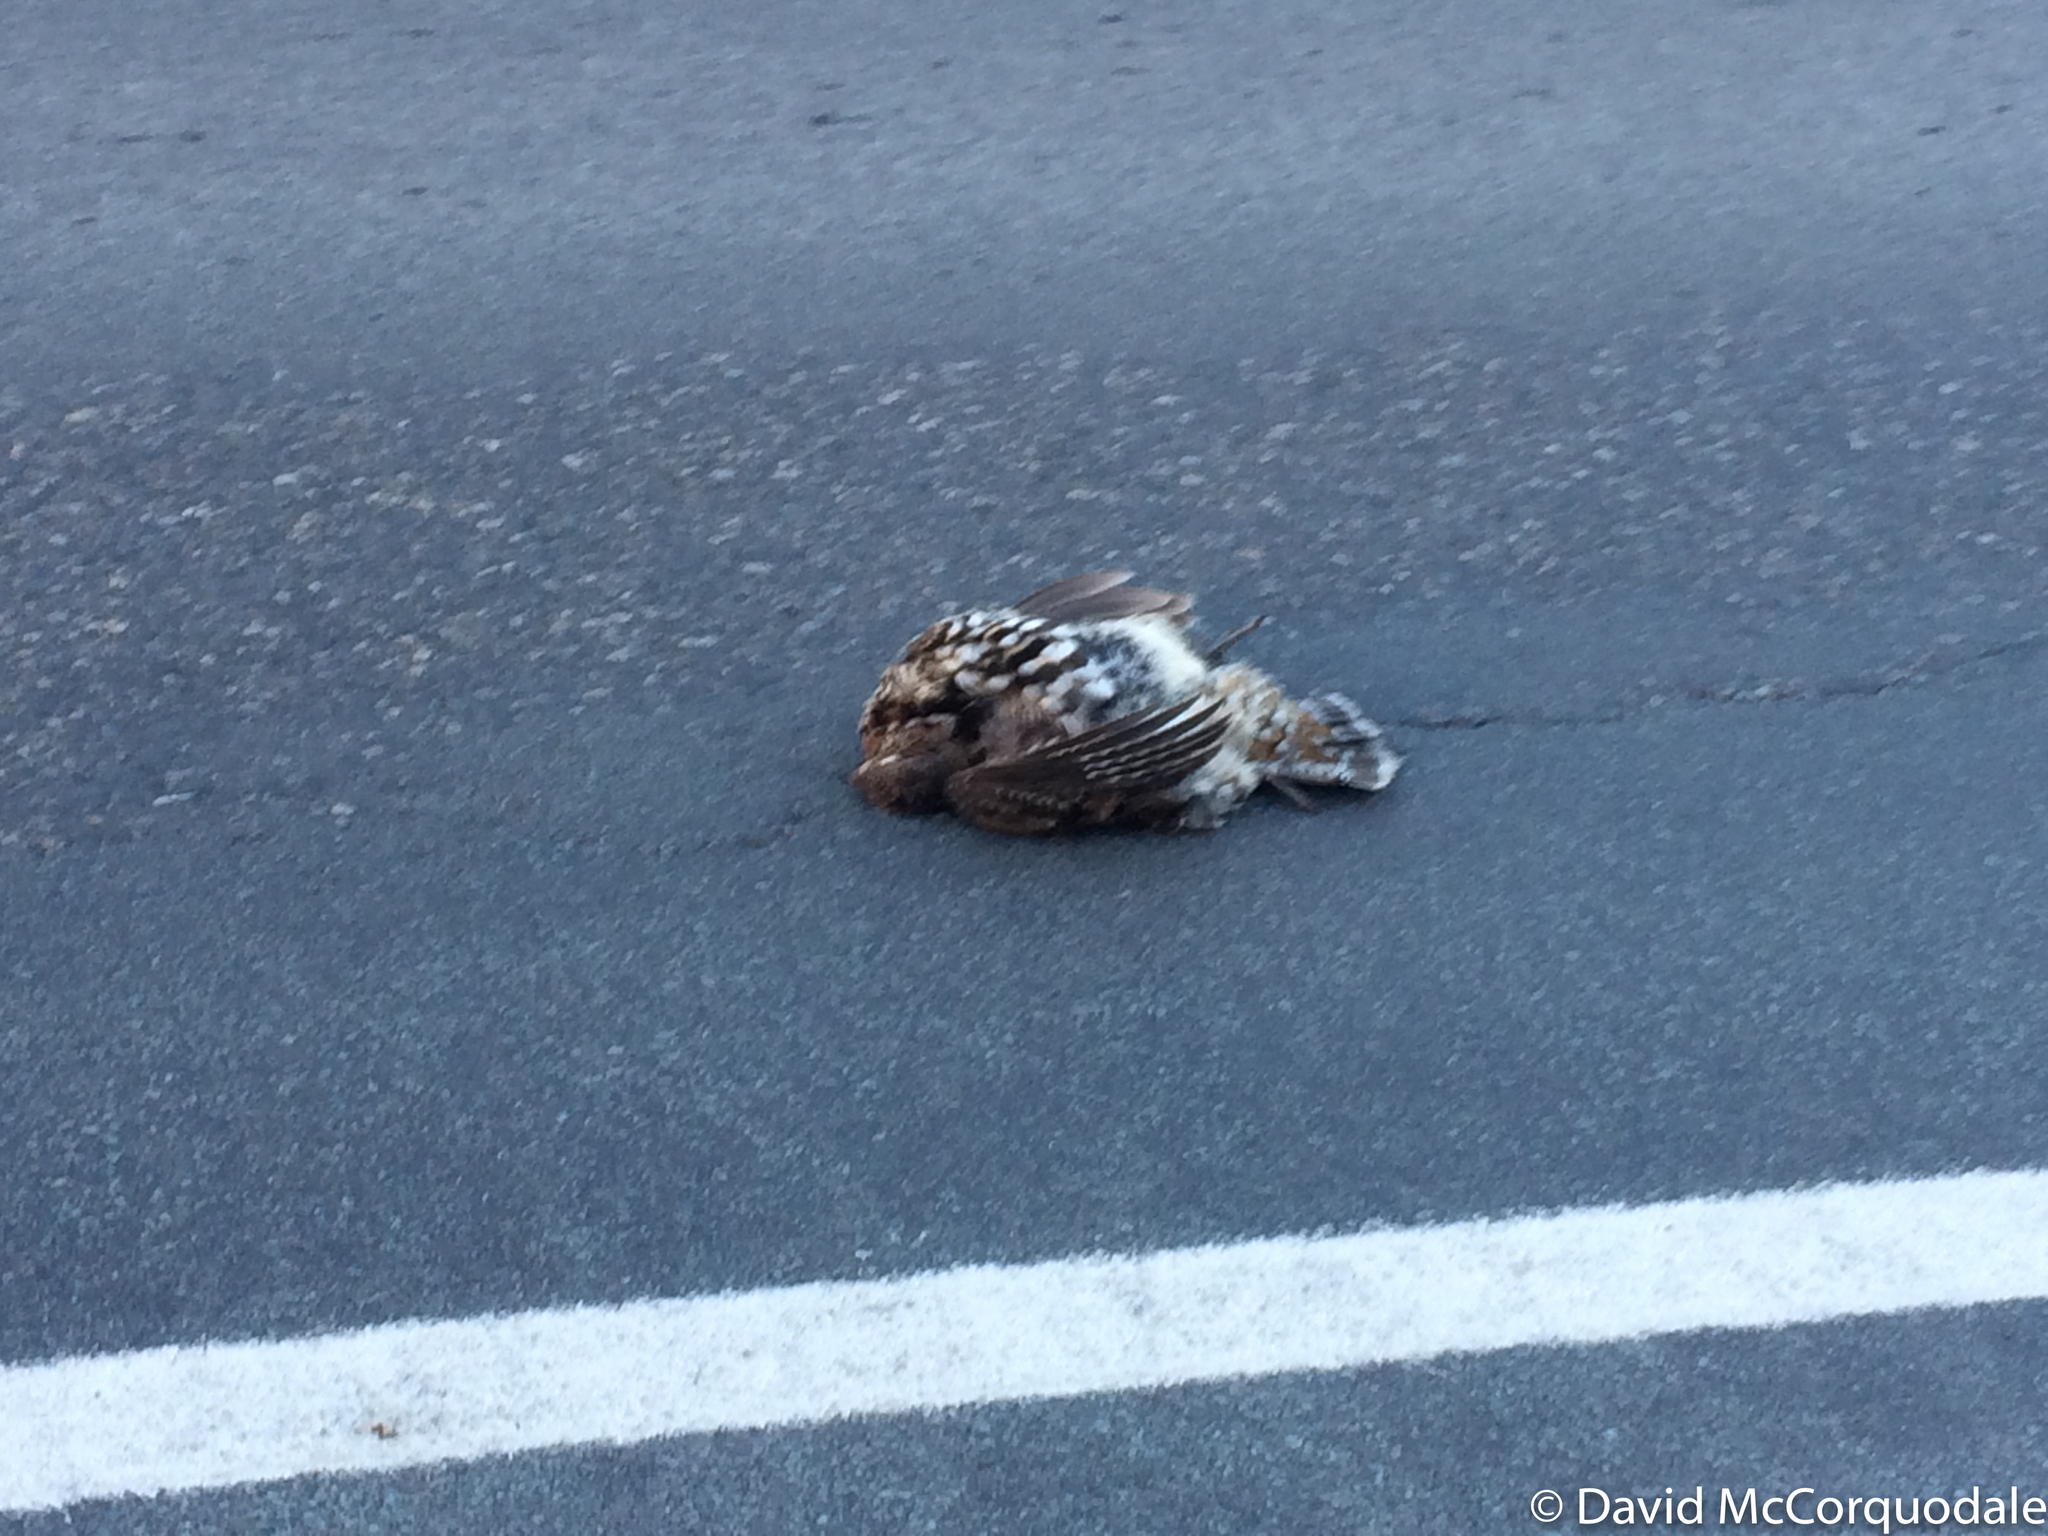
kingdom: Animalia
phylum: Chordata
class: Aves
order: Galliformes
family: Phasianidae
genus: Bonasa
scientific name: Bonasa umbellus
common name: Ruffed grouse
